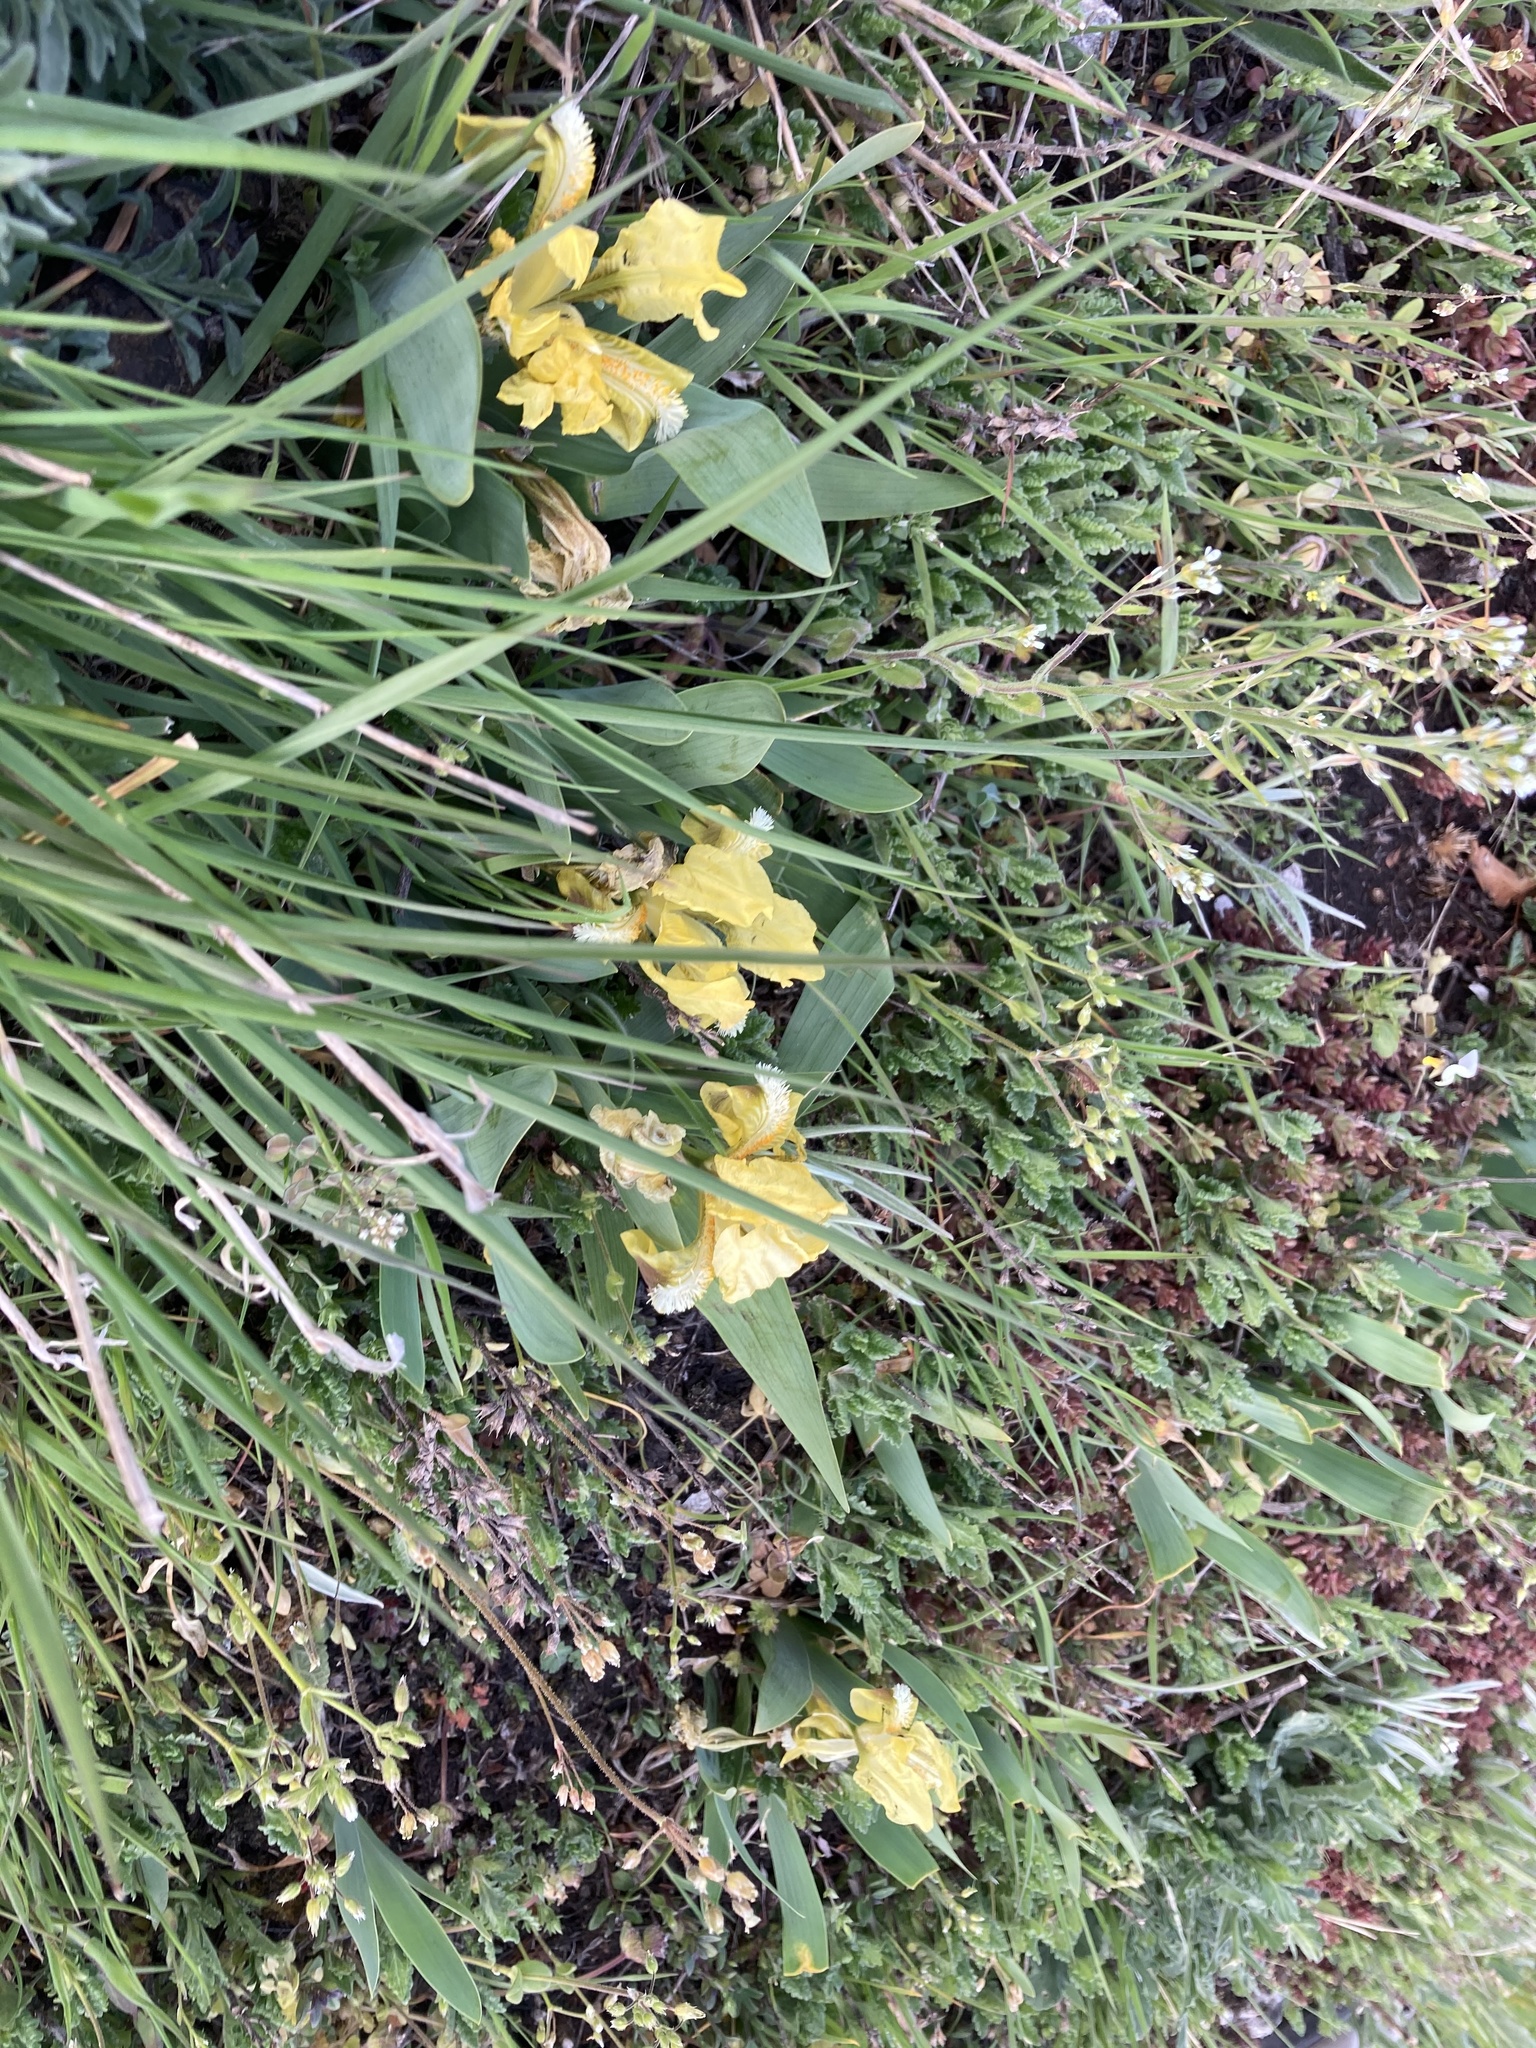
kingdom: Plantae
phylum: Tracheophyta
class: Liliopsida
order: Asparagales
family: Iridaceae
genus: Iris
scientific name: Iris pumila
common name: Dwarf iris
